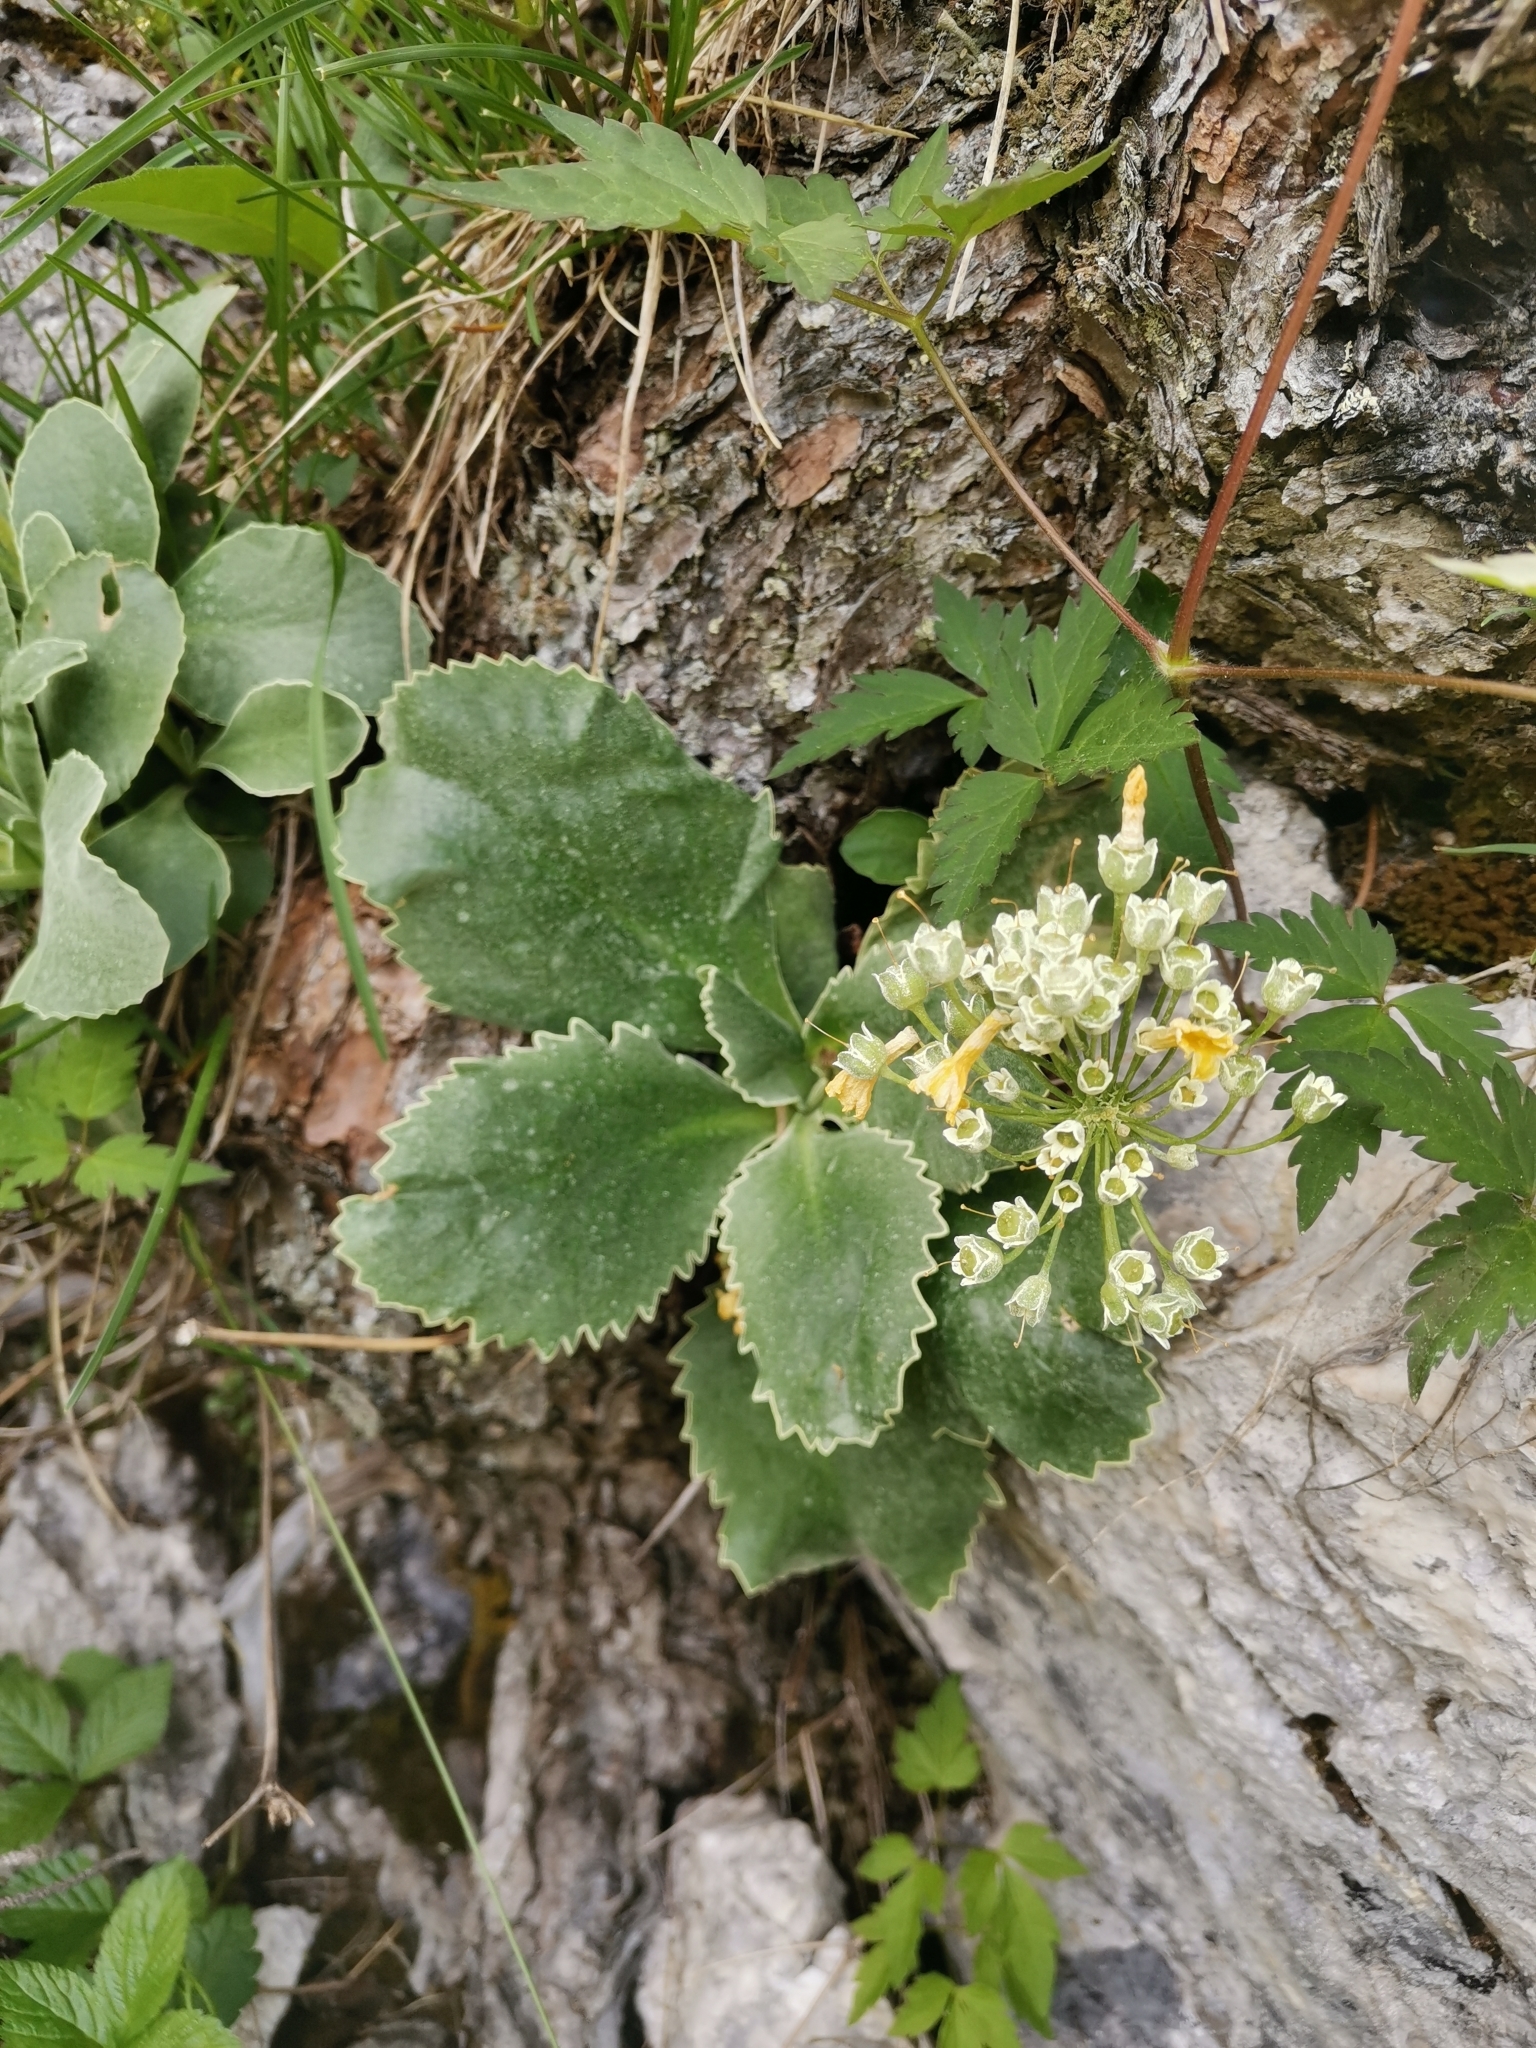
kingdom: Plantae
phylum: Tracheophyta
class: Magnoliopsida
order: Ericales
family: Primulaceae
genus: Primula
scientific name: Primula auricula
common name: Auricula
